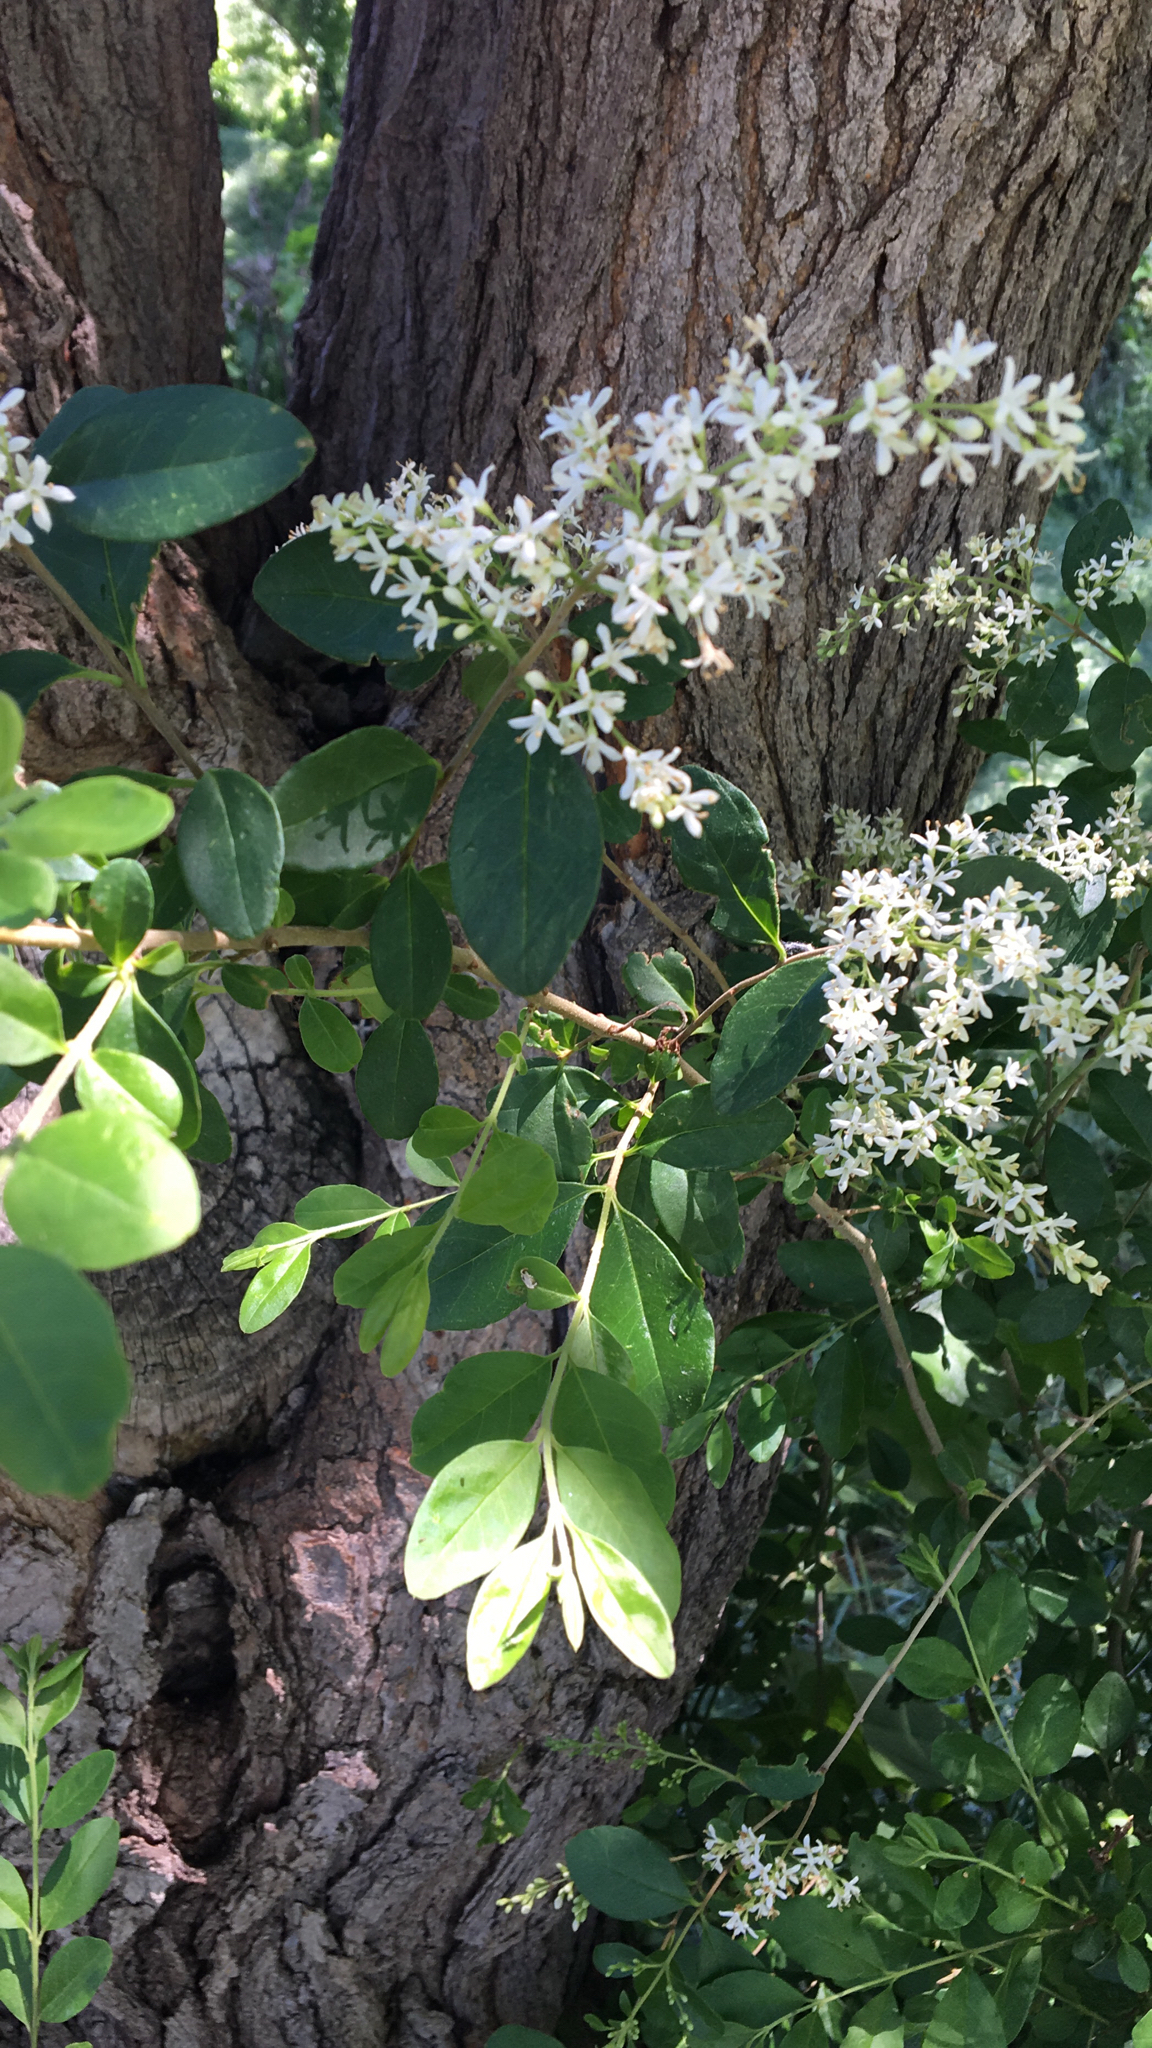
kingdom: Plantae
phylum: Tracheophyta
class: Magnoliopsida
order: Lamiales
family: Oleaceae
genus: Ligustrum
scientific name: Ligustrum sinense
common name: Chinese privet
